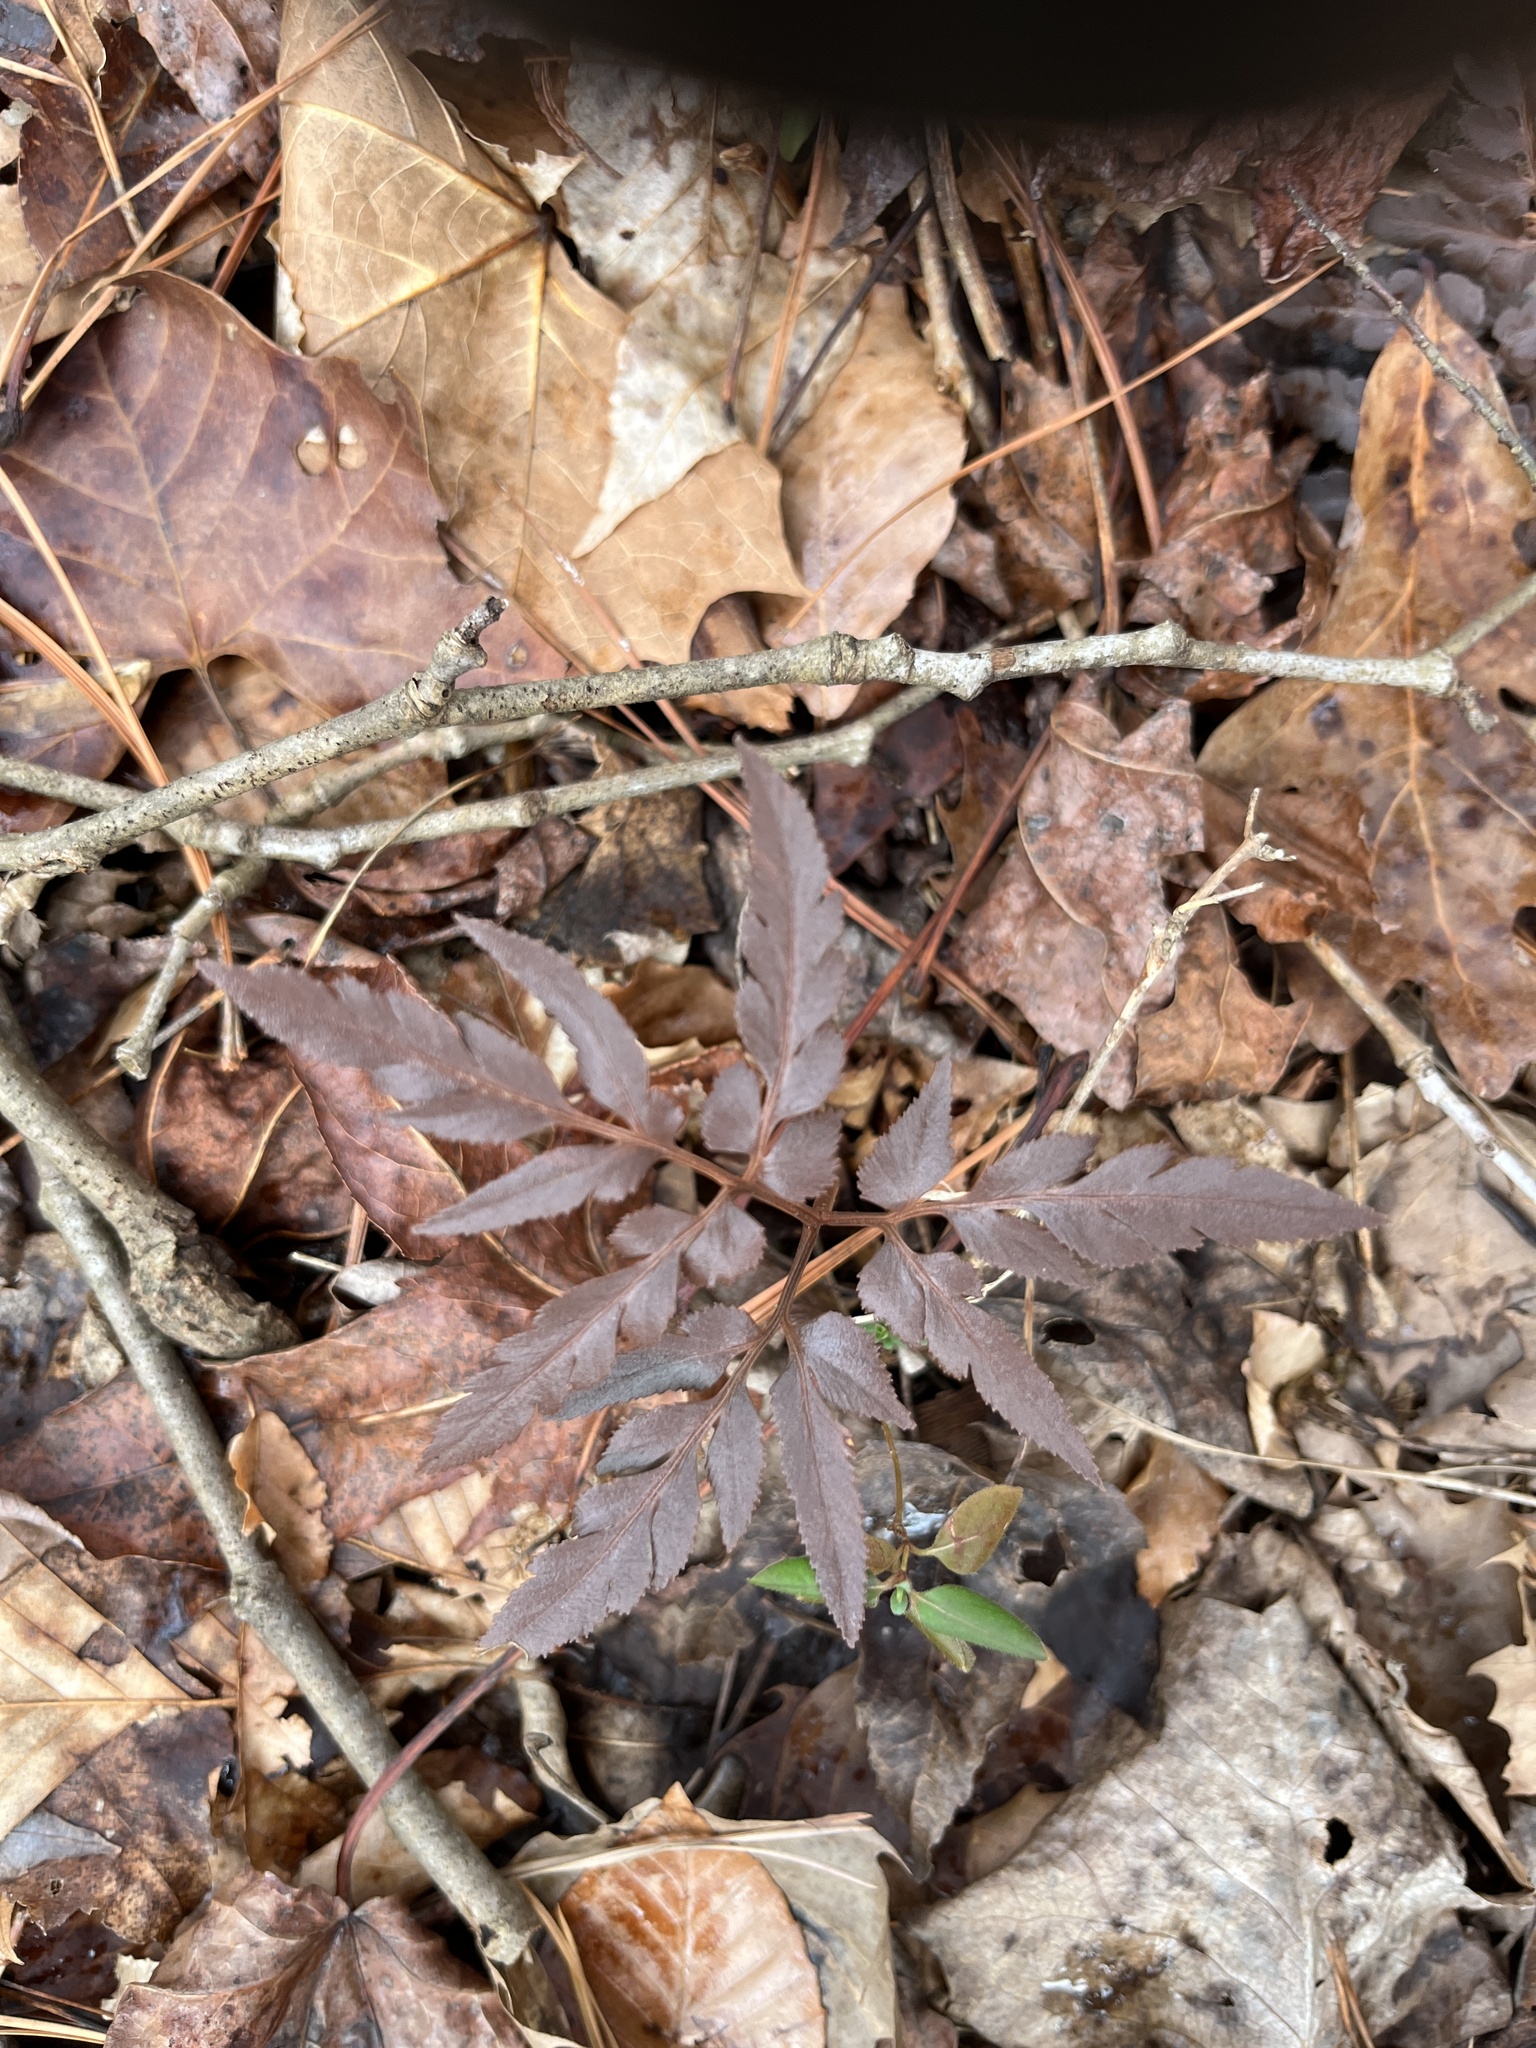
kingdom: Plantae
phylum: Tracheophyta
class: Polypodiopsida
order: Ophioglossales
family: Ophioglossaceae
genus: Sceptridium
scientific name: Sceptridium dissectum
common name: Cut-leaved grapefern
